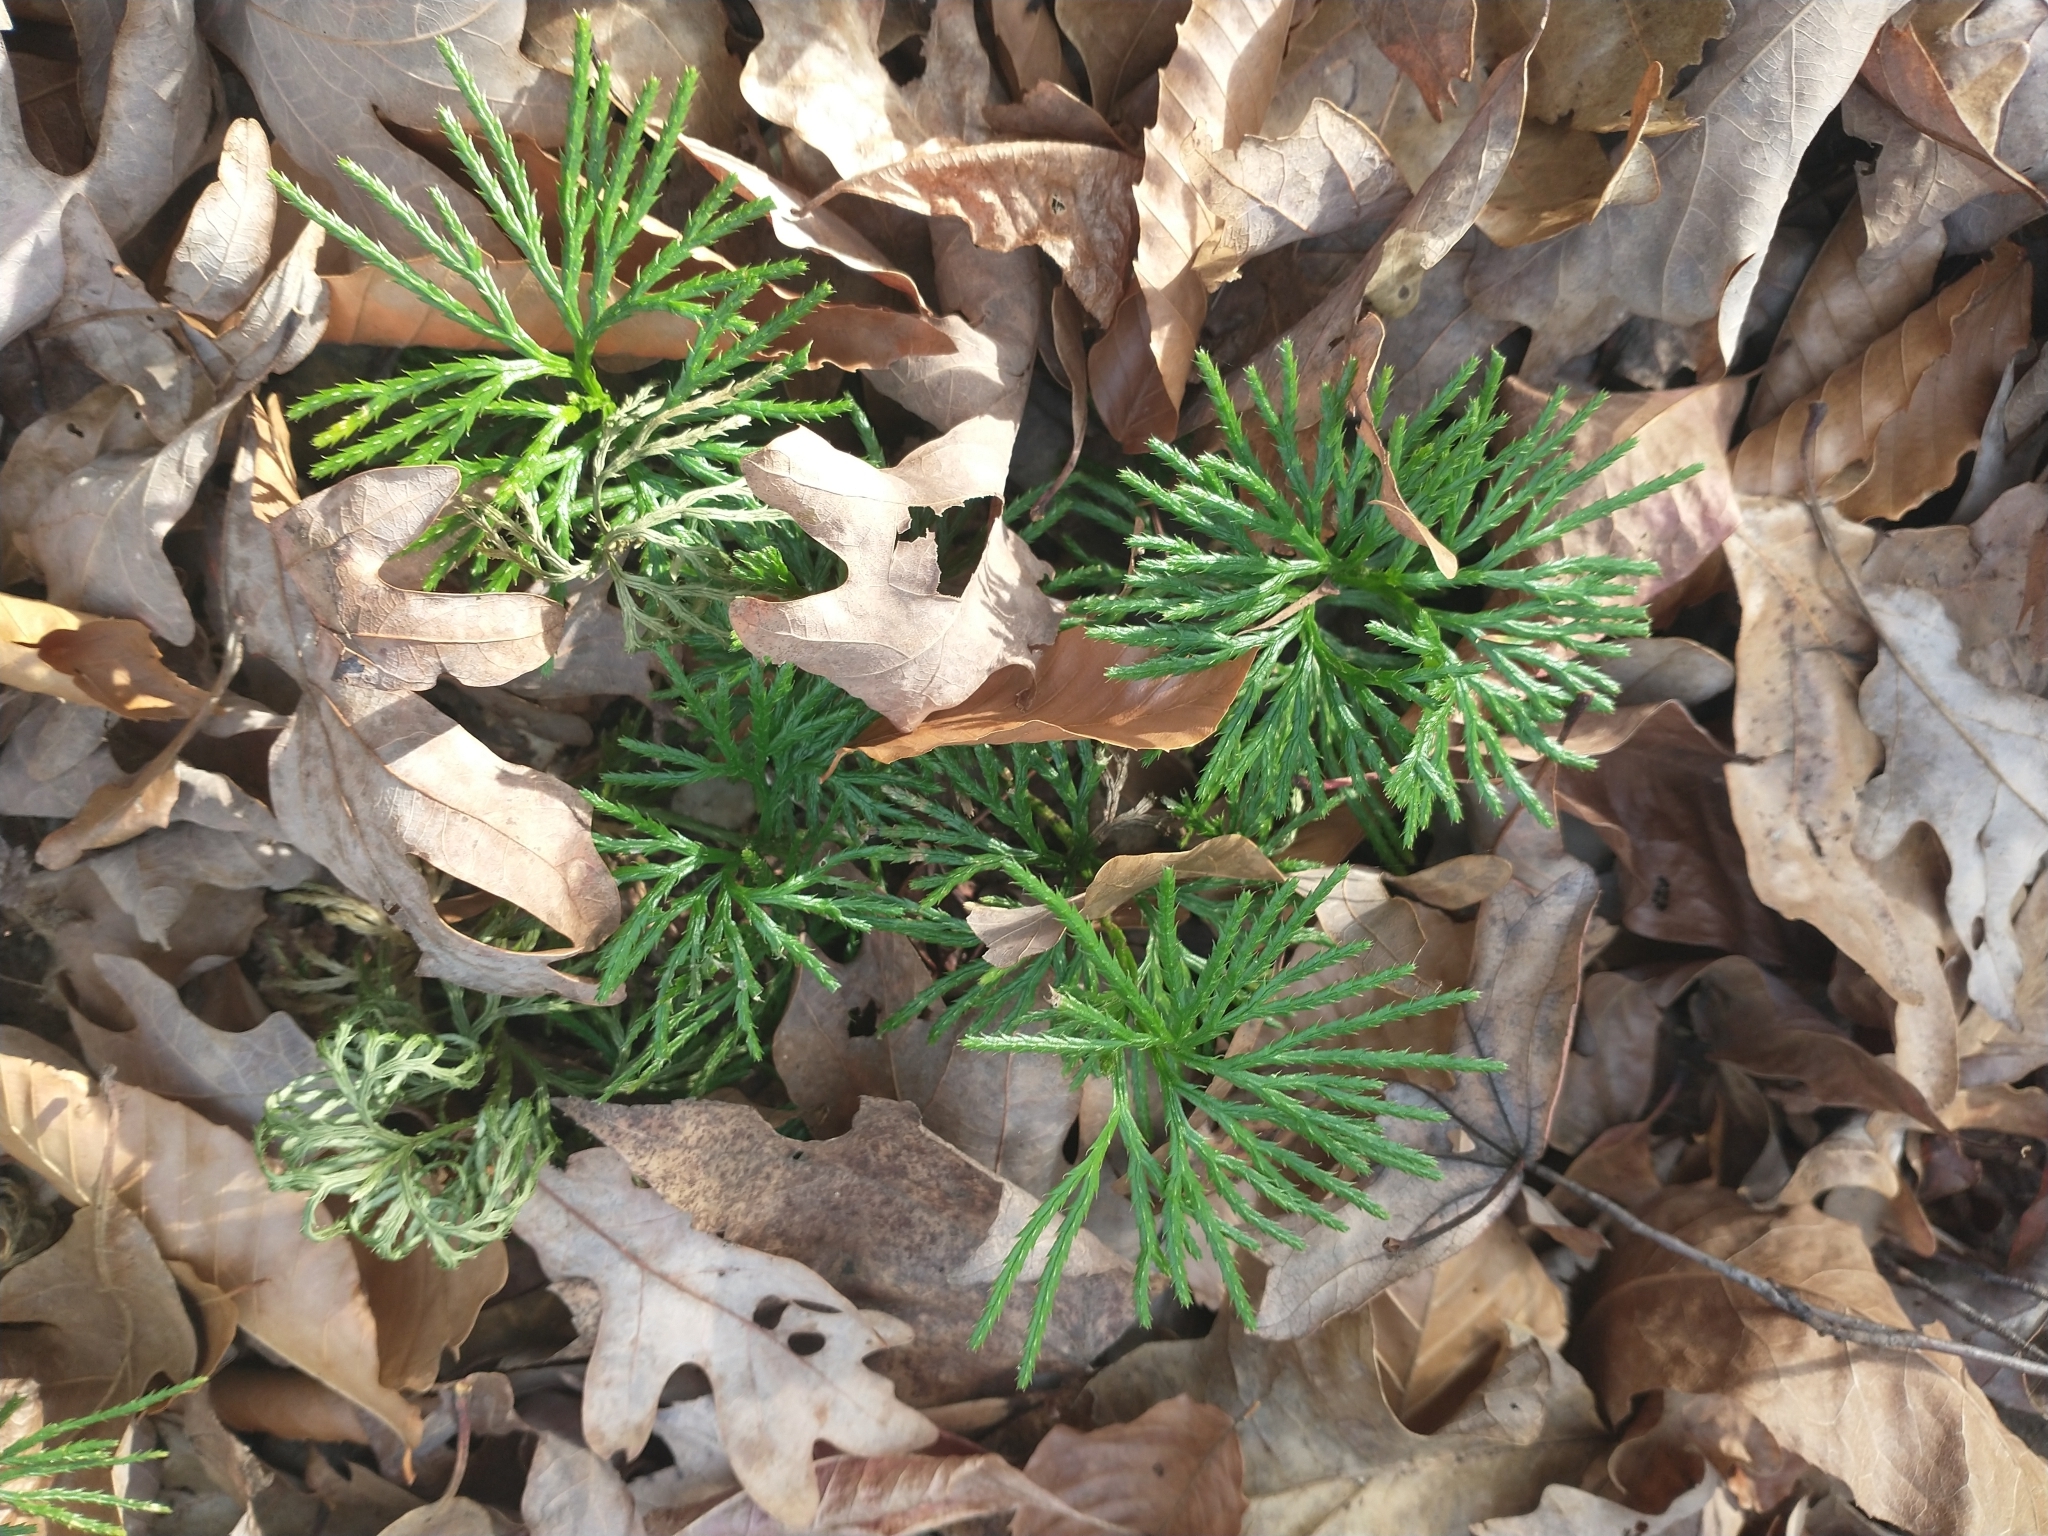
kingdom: Plantae
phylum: Tracheophyta
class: Lycopodiopsida
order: Lycopodiales
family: Lycopodiaceae
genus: Diphasiastrum
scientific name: Diphasiastrum digitatum
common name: Southern running-pine
